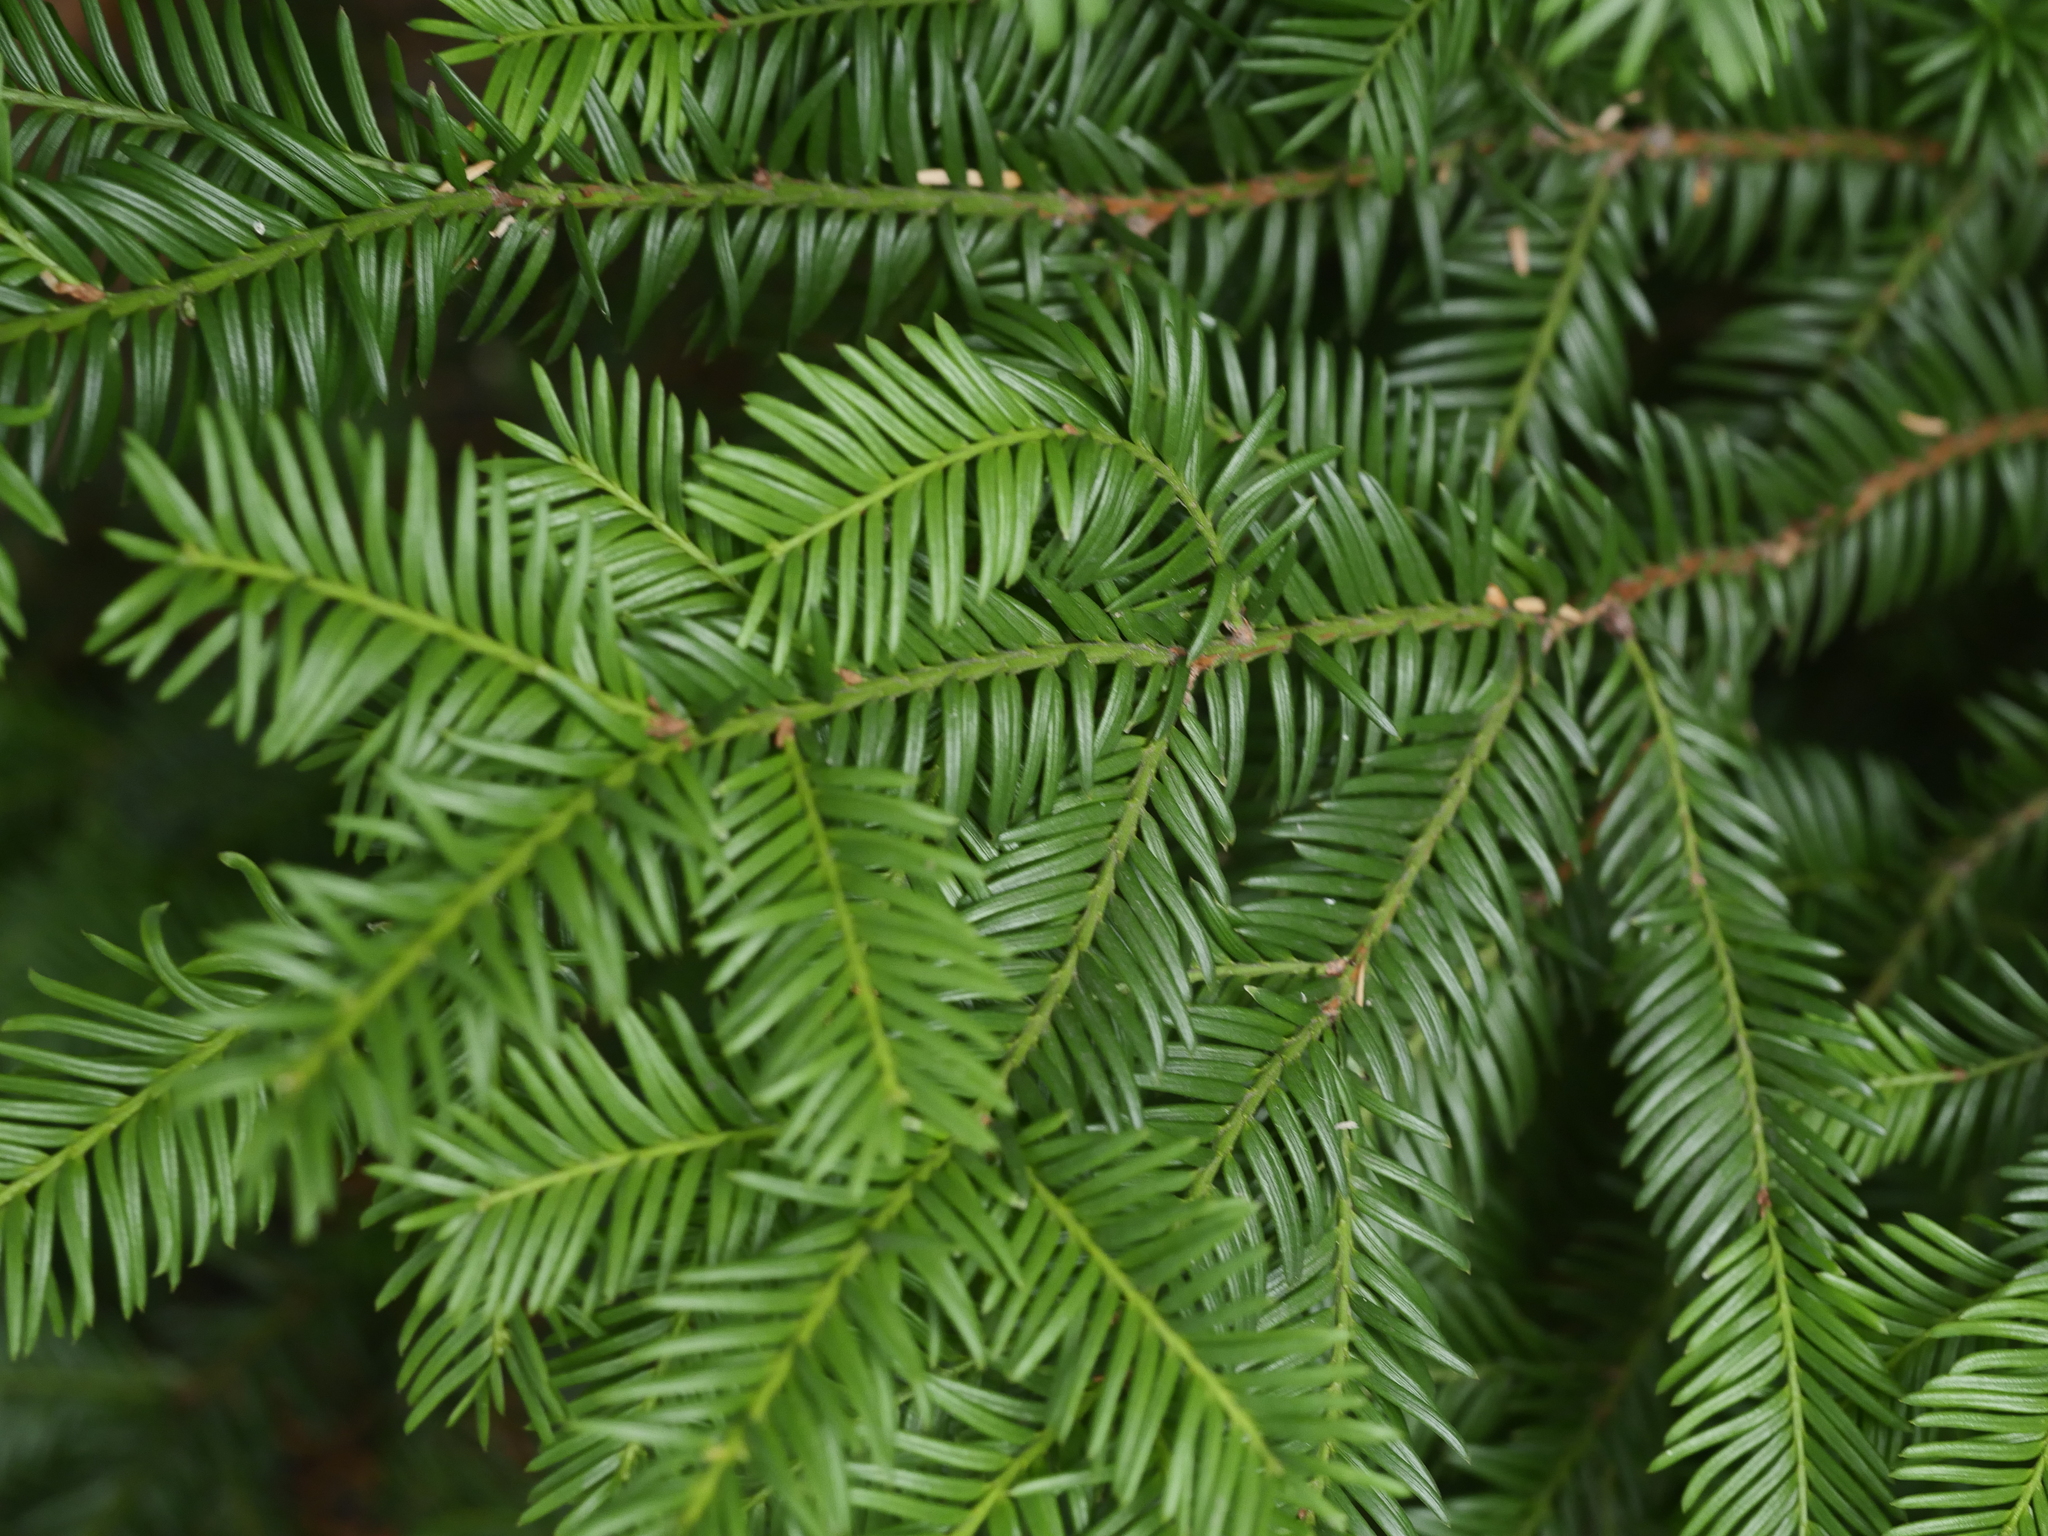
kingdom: Plantae
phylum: Tracheophyta
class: Pinopsida
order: Pinales
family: Taxaceae
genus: Taxus
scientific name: Taxus baccata
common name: Yew
